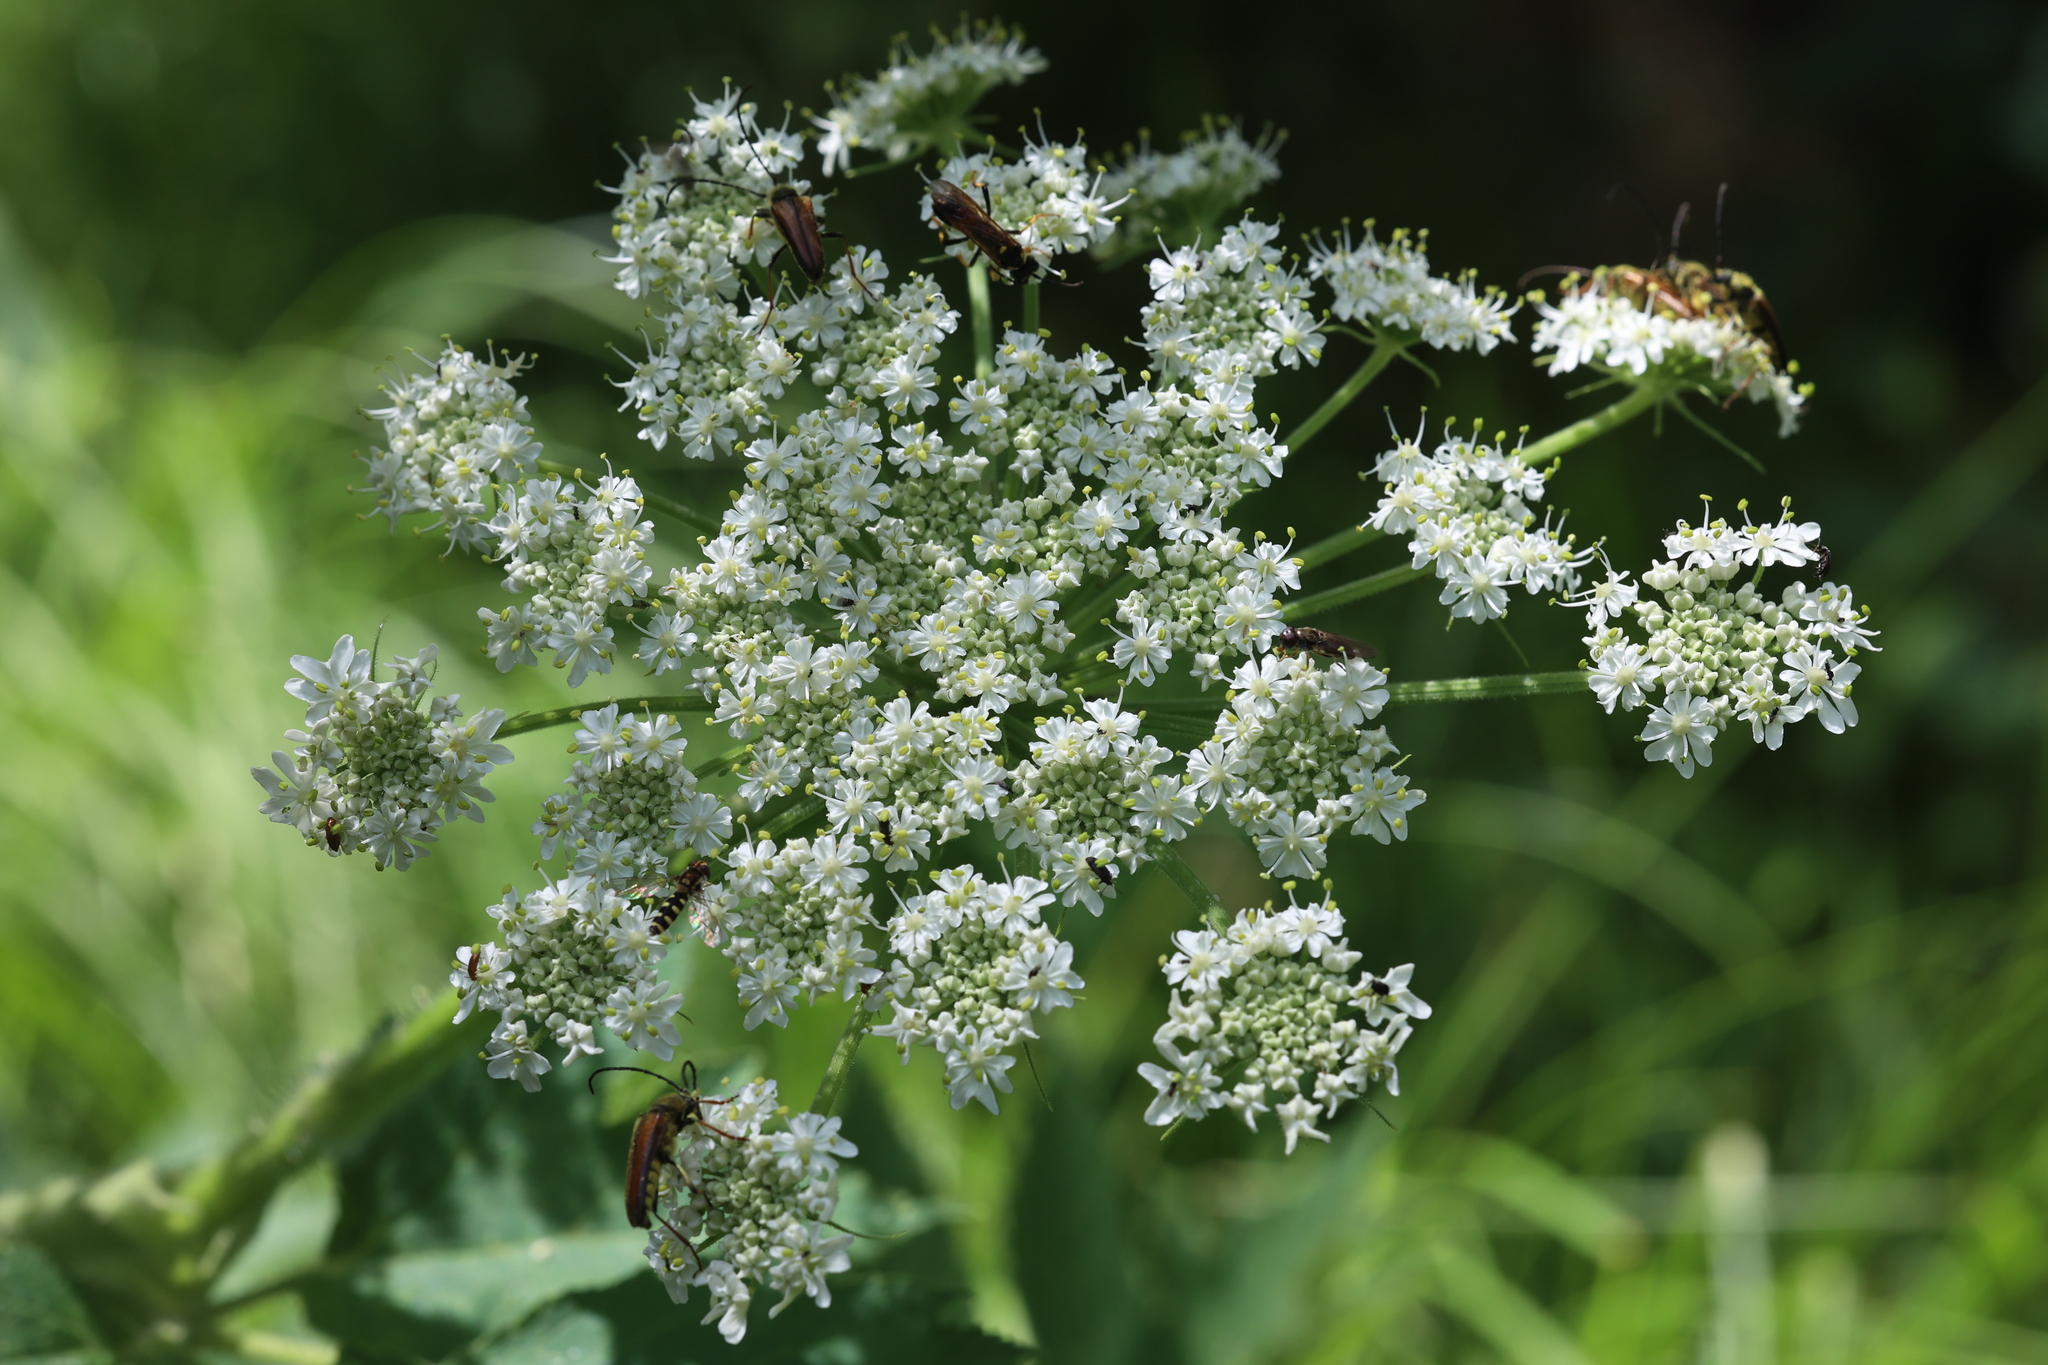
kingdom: Plantae
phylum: Tracheophyta
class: Magnoliopsida
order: Apiales
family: Apiaceae
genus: Heracleum
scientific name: Heracleum maximum
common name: American cow parsnip
